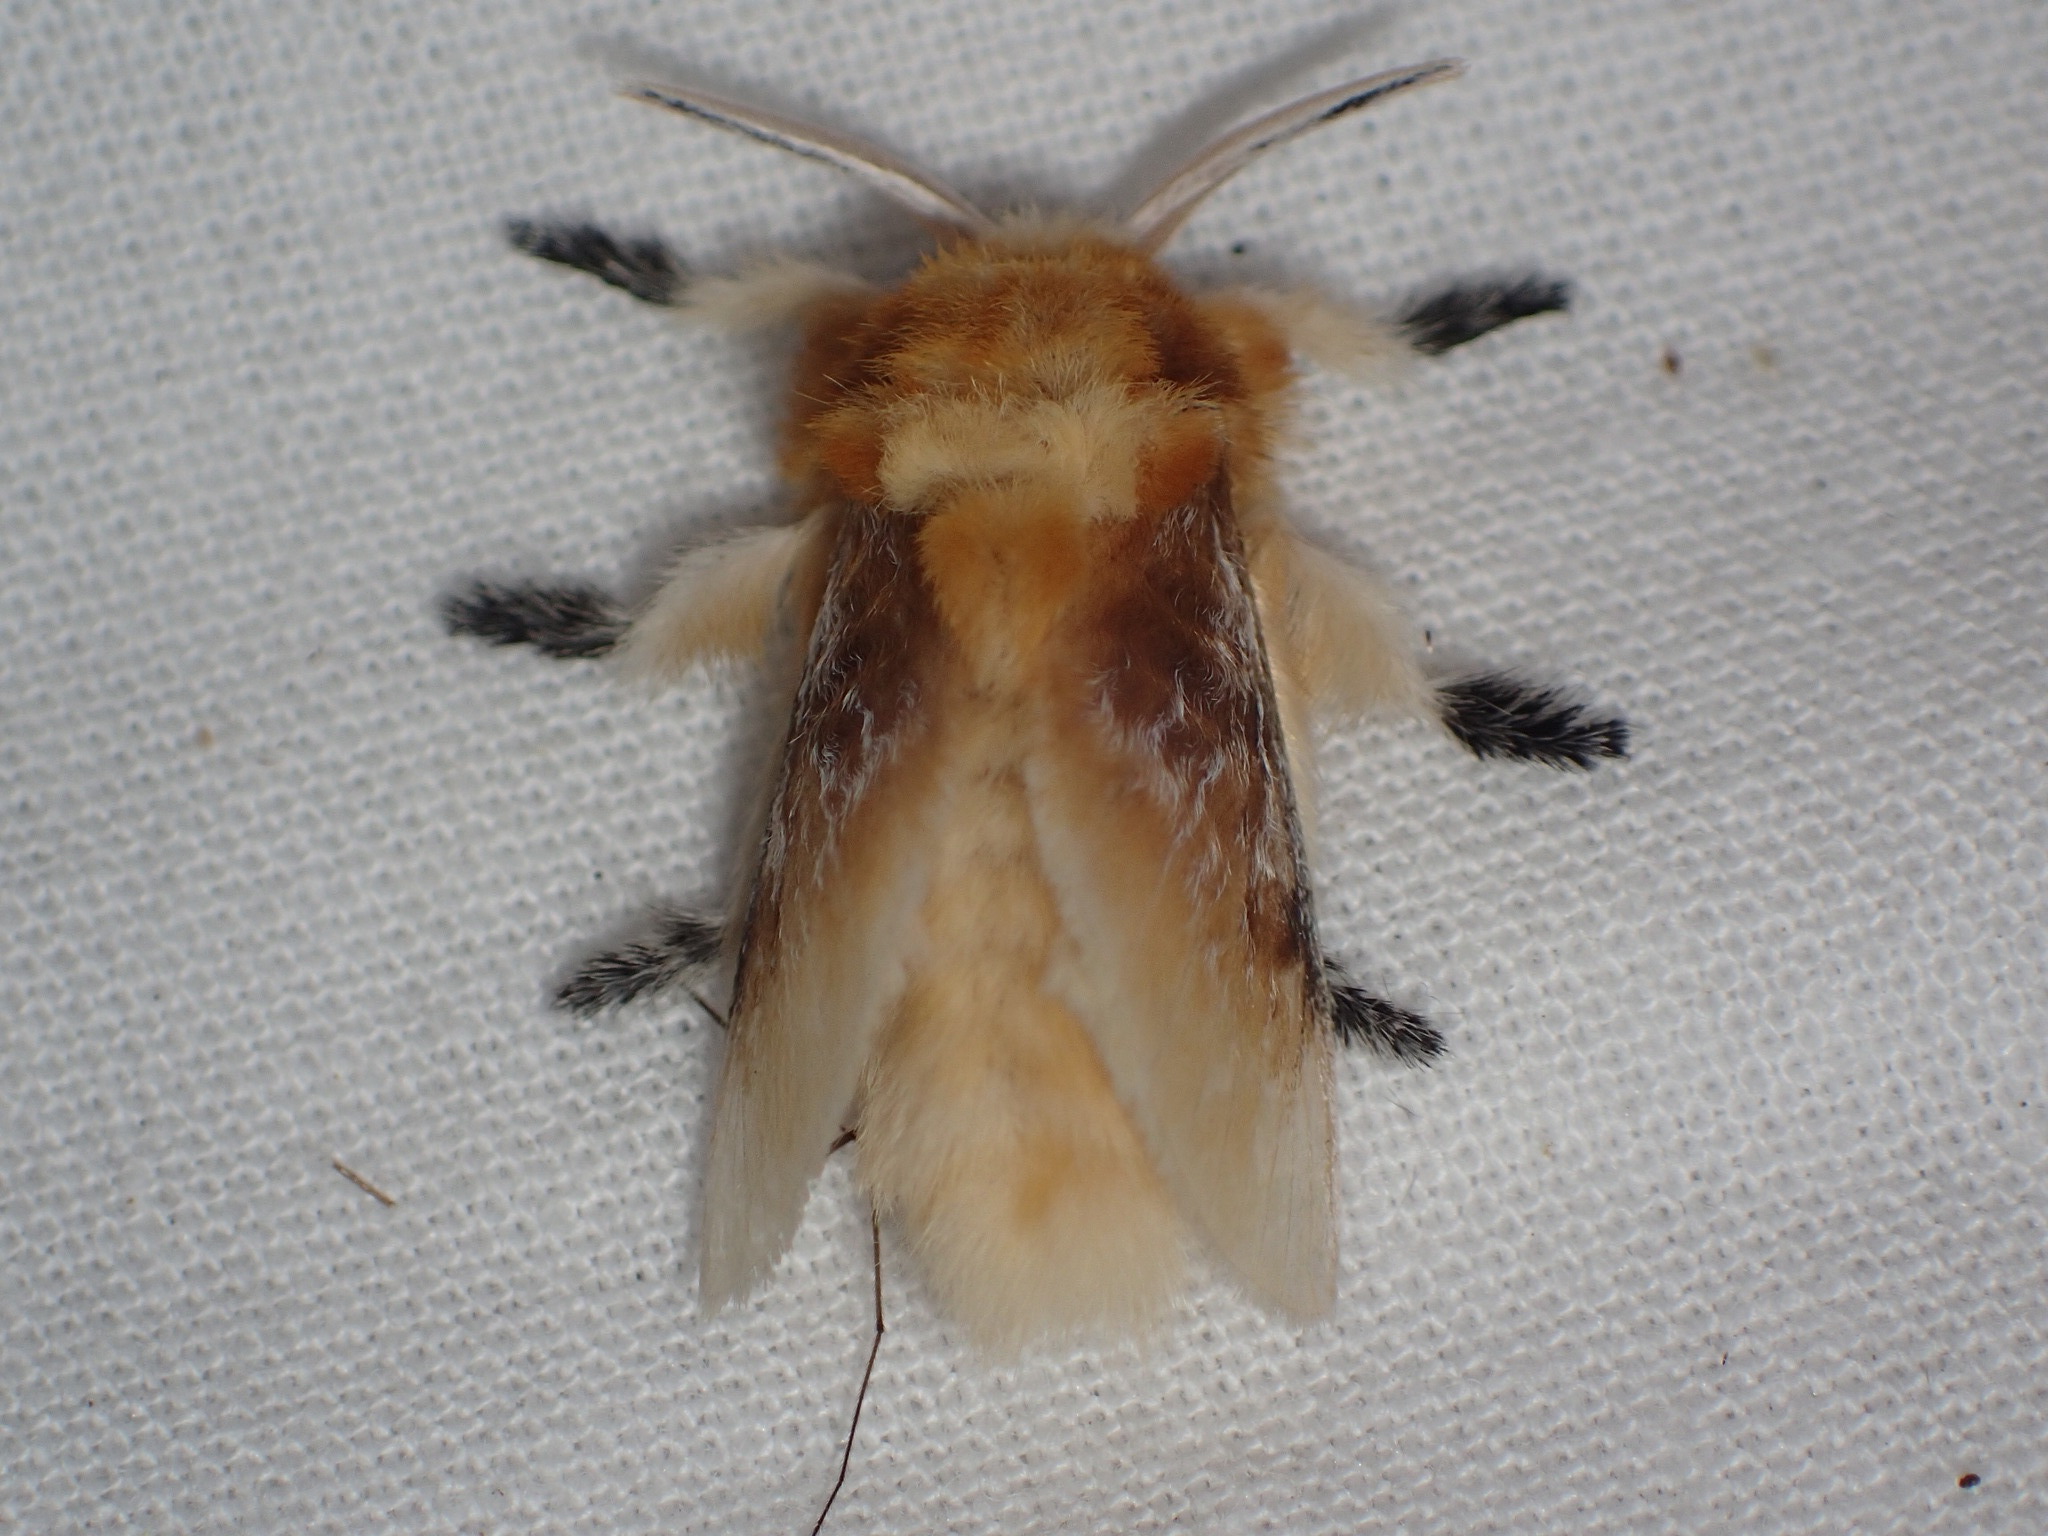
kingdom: Animalia
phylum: Arthropoda
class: Insecta
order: Lepidoptera
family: Megalopygidae
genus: Megalopyge
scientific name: Megalopyge opercularis
